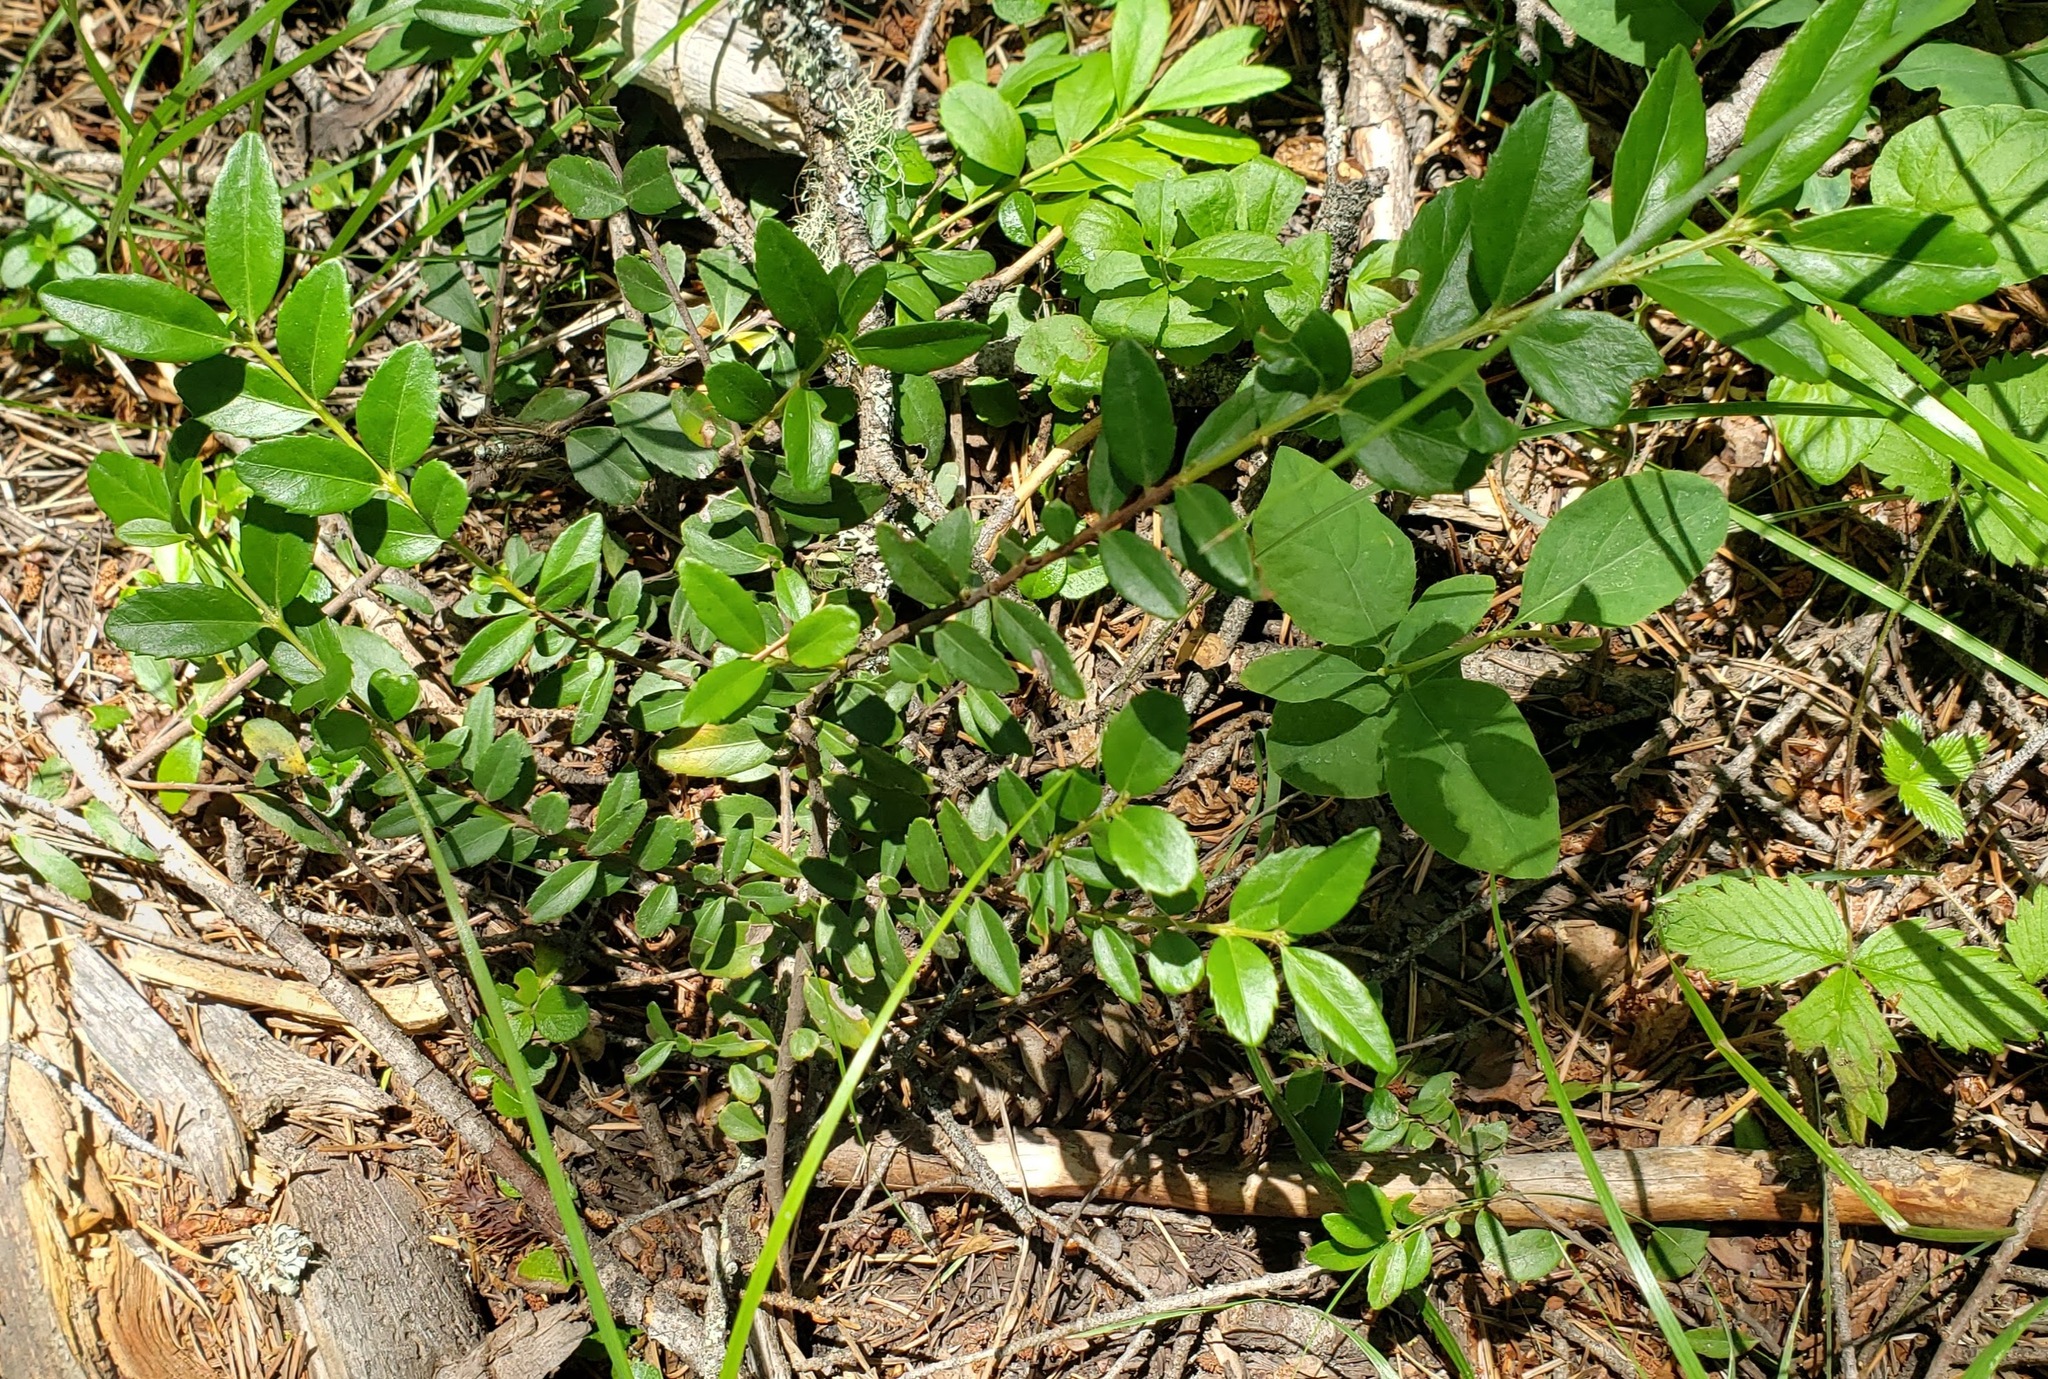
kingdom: Plantae
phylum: Tracheophyta
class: Magnoliopsida
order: Celastrales
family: Celastraceae
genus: Paxistima
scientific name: Paxistima myrsinites
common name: Mountain-lover
